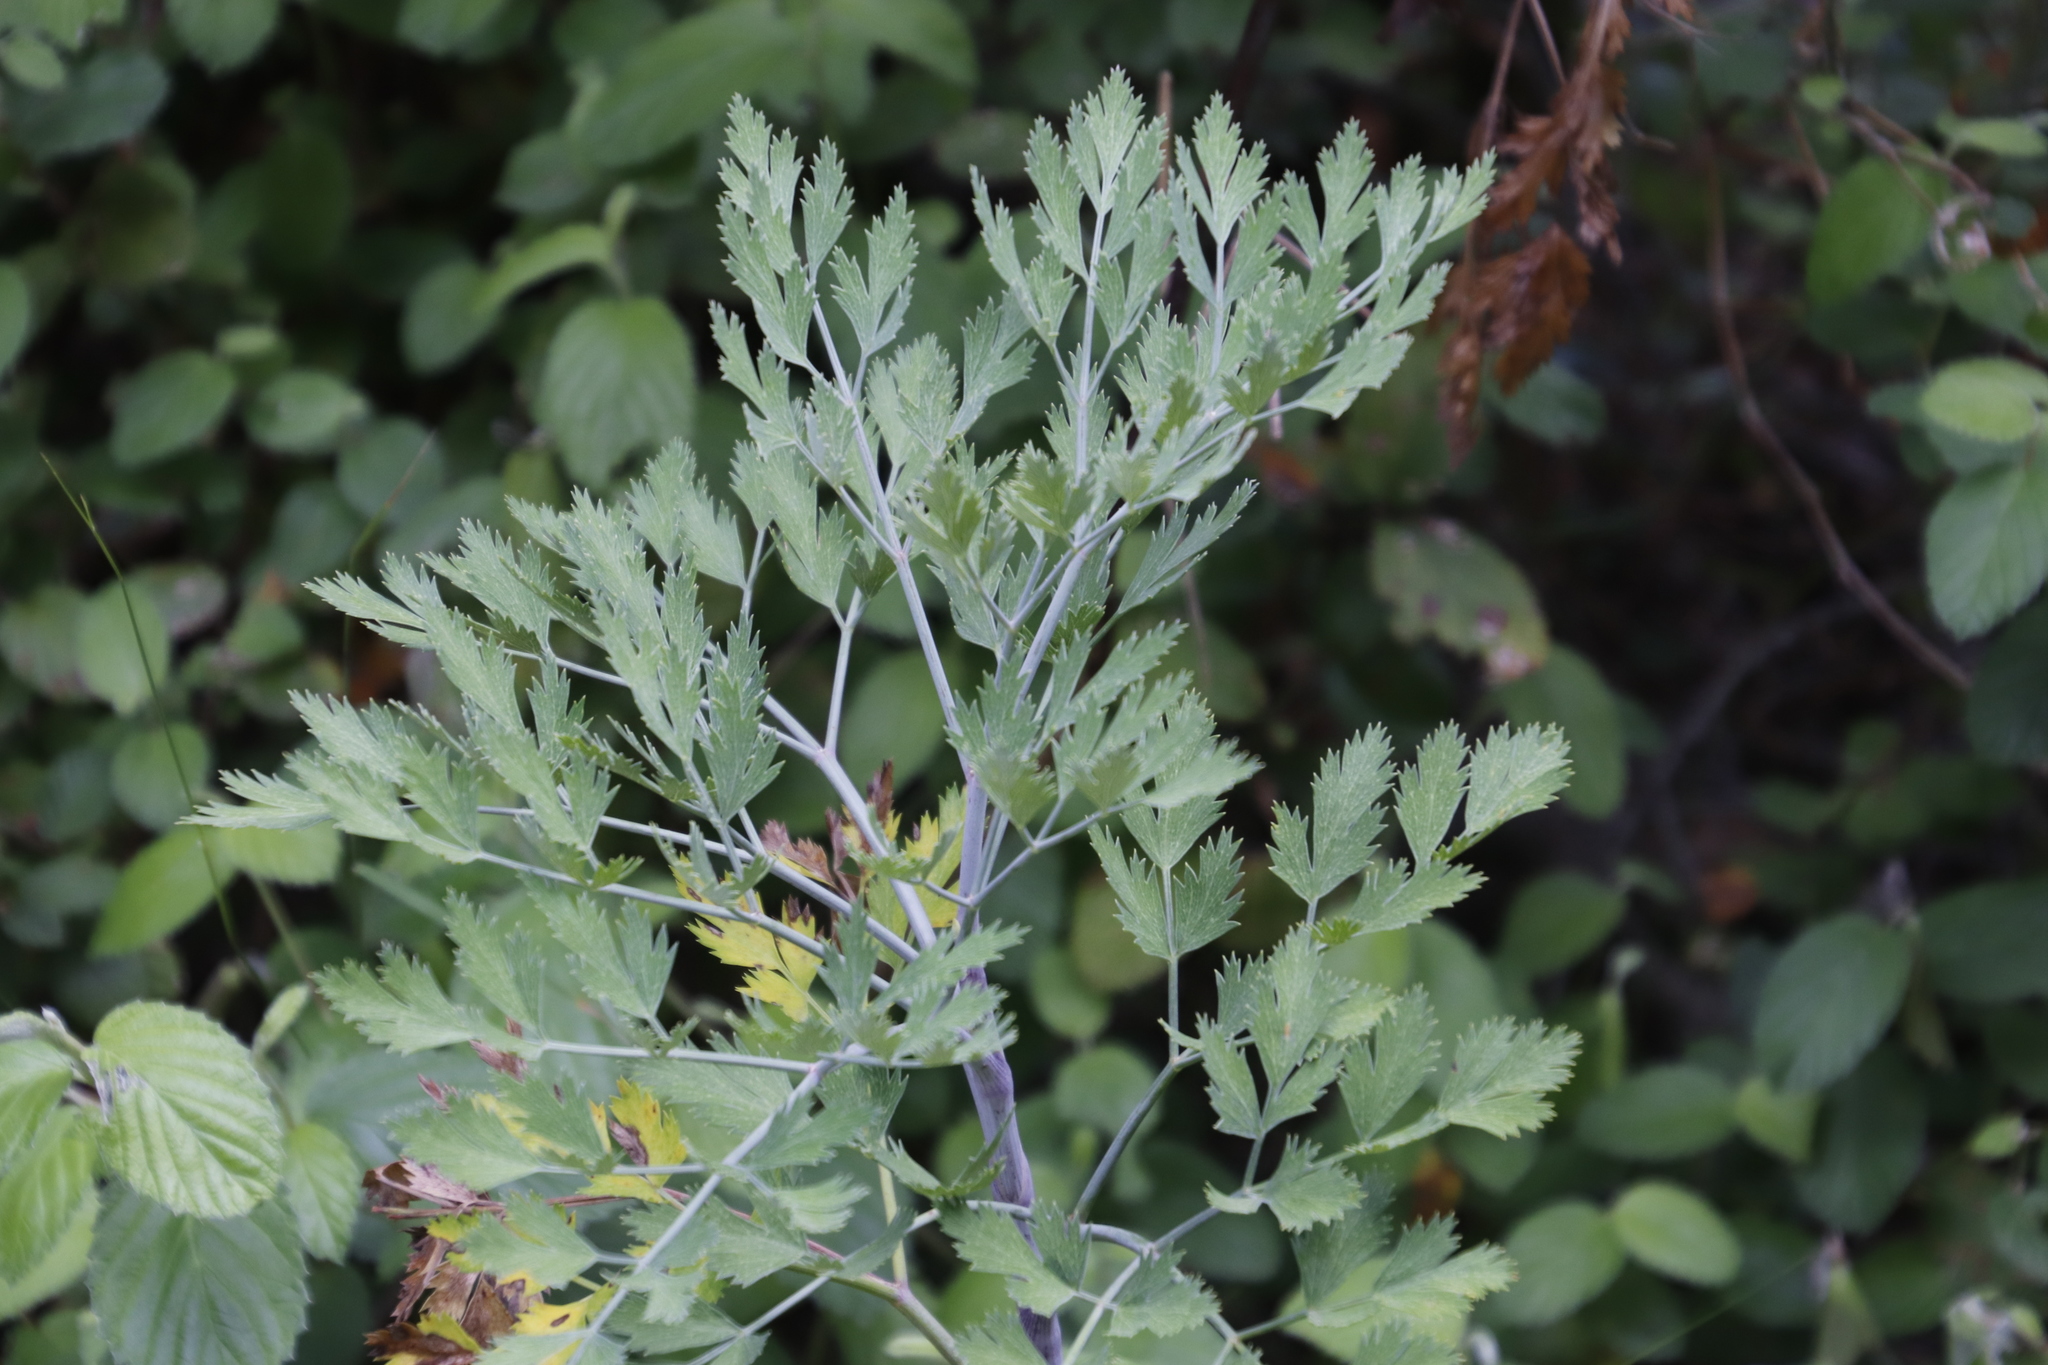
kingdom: Plantae
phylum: Tracheophyta
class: Magnoliopsida
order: Apiales
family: Apiaceae
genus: Notobubon
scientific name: Notobubon galbanum
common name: Blisterbush
